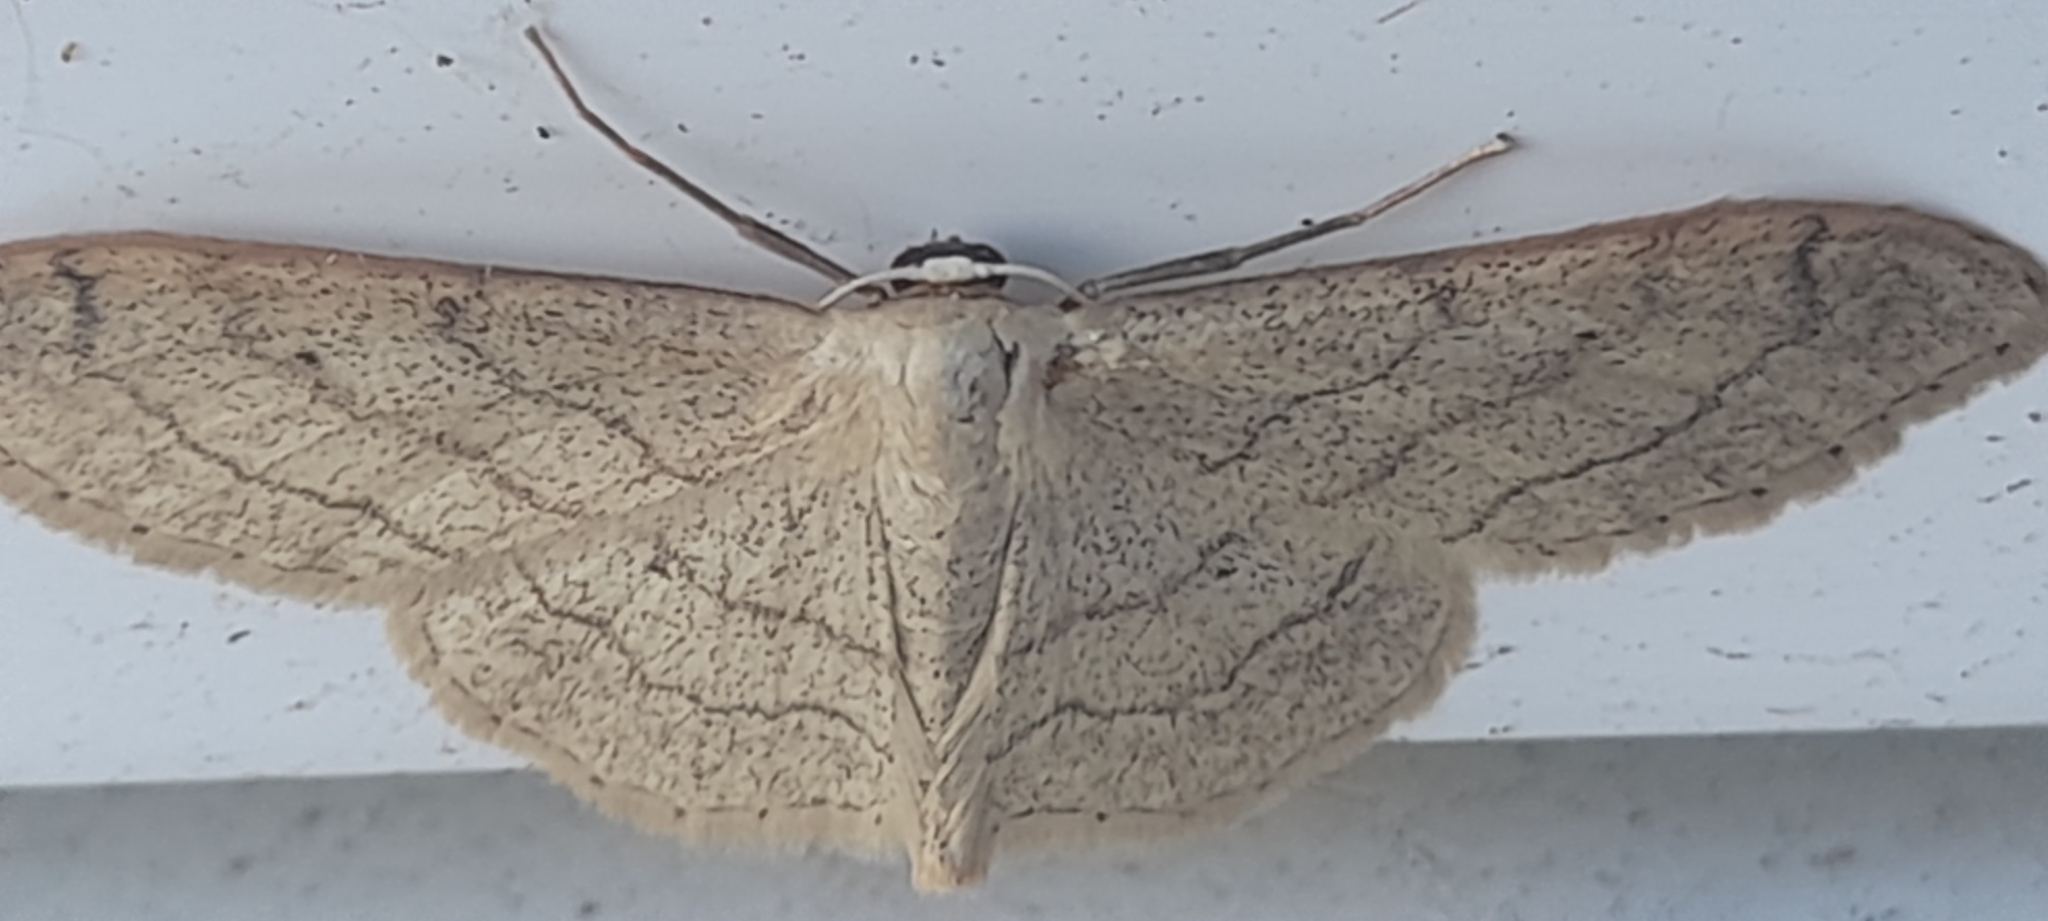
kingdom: Animalia
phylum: Arthropoda
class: Insecta
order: Lepidoptera
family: Geometridae
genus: Idaea
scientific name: Idaea aversata
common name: Riband wave
